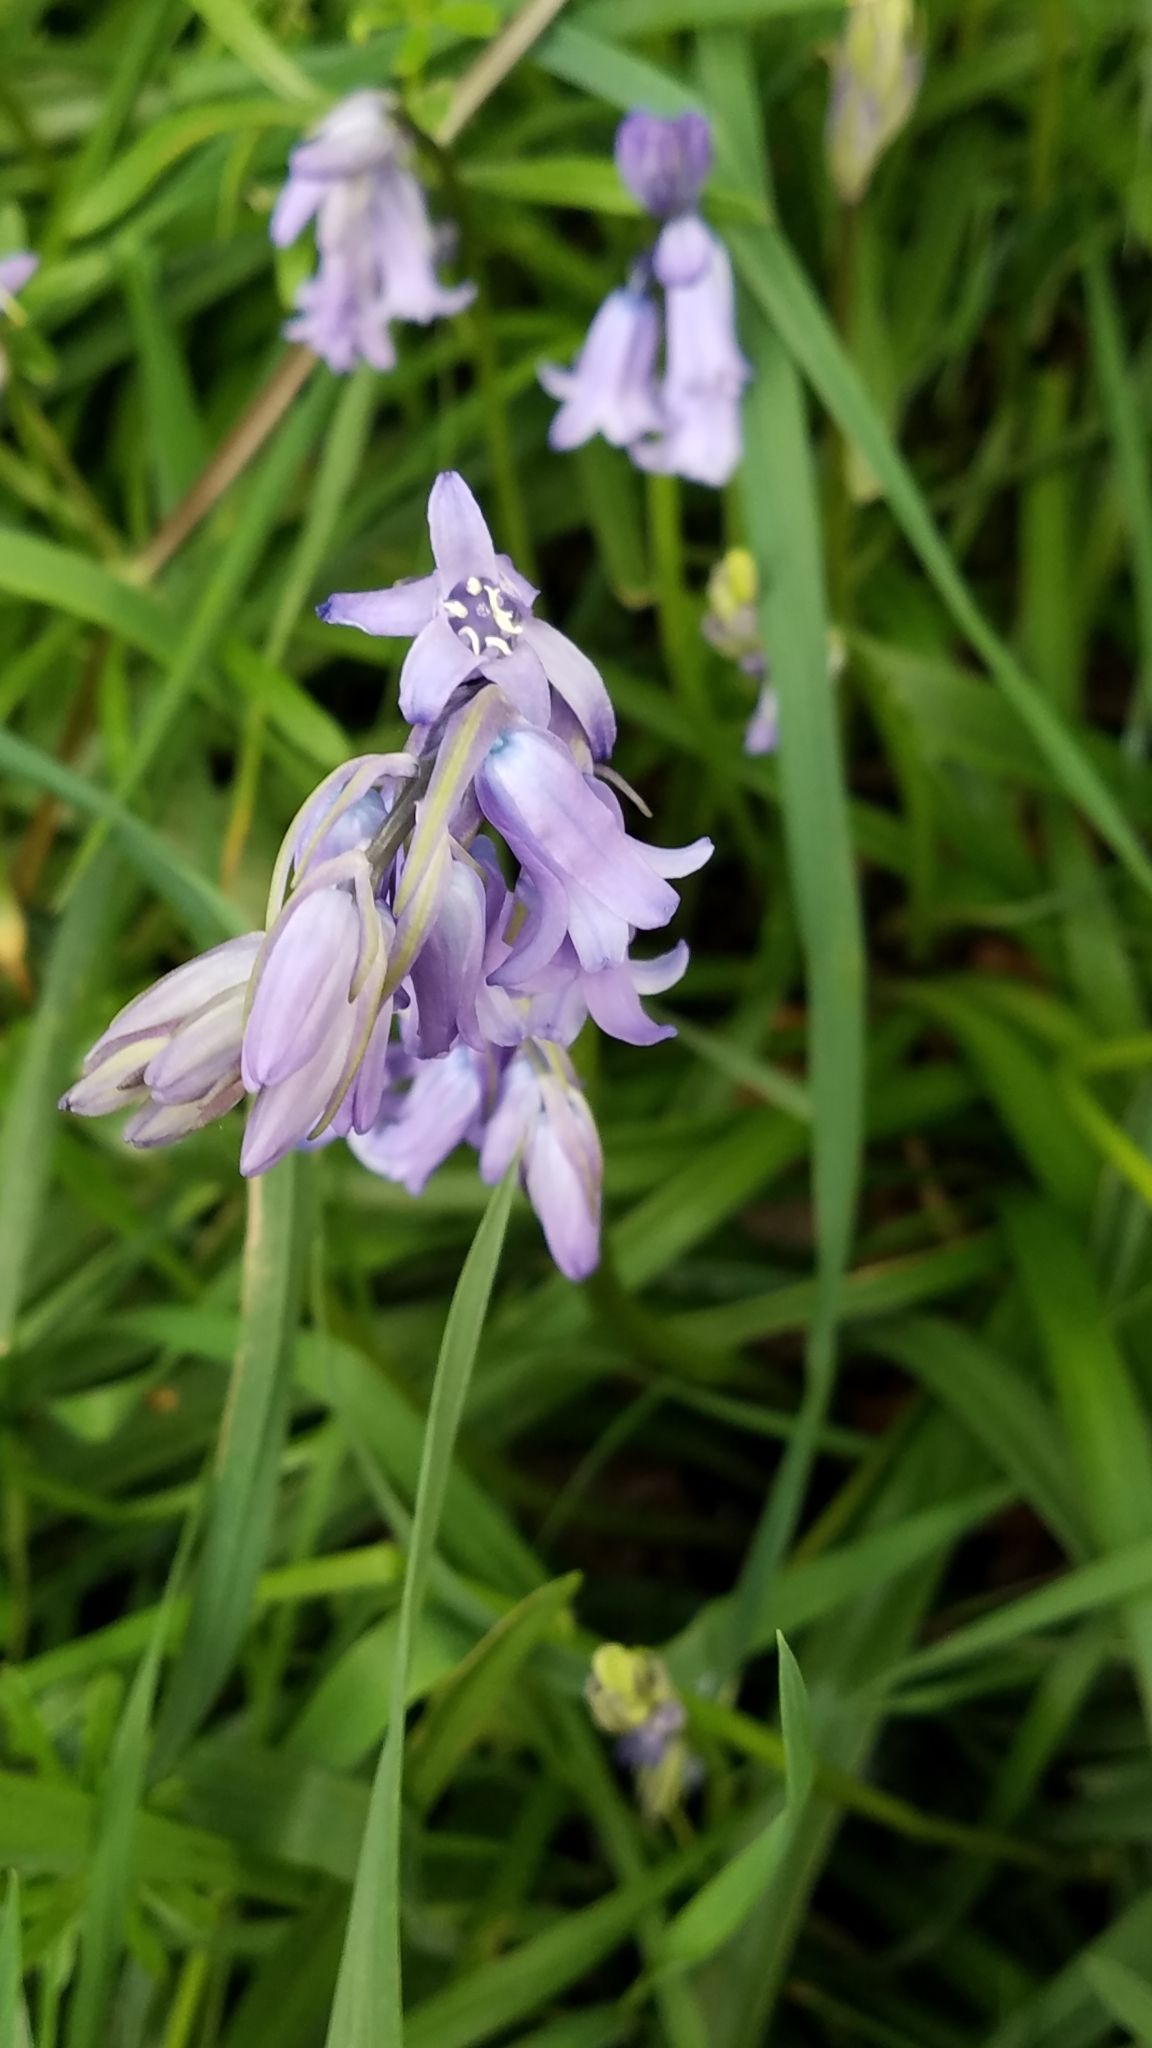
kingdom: Plantae
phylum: Tracheophyta
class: Liliopsida
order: Asparagales
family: Asparagaceae
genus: Hyacinthoides
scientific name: Hyacinthoides non-scripta
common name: Bluebell
